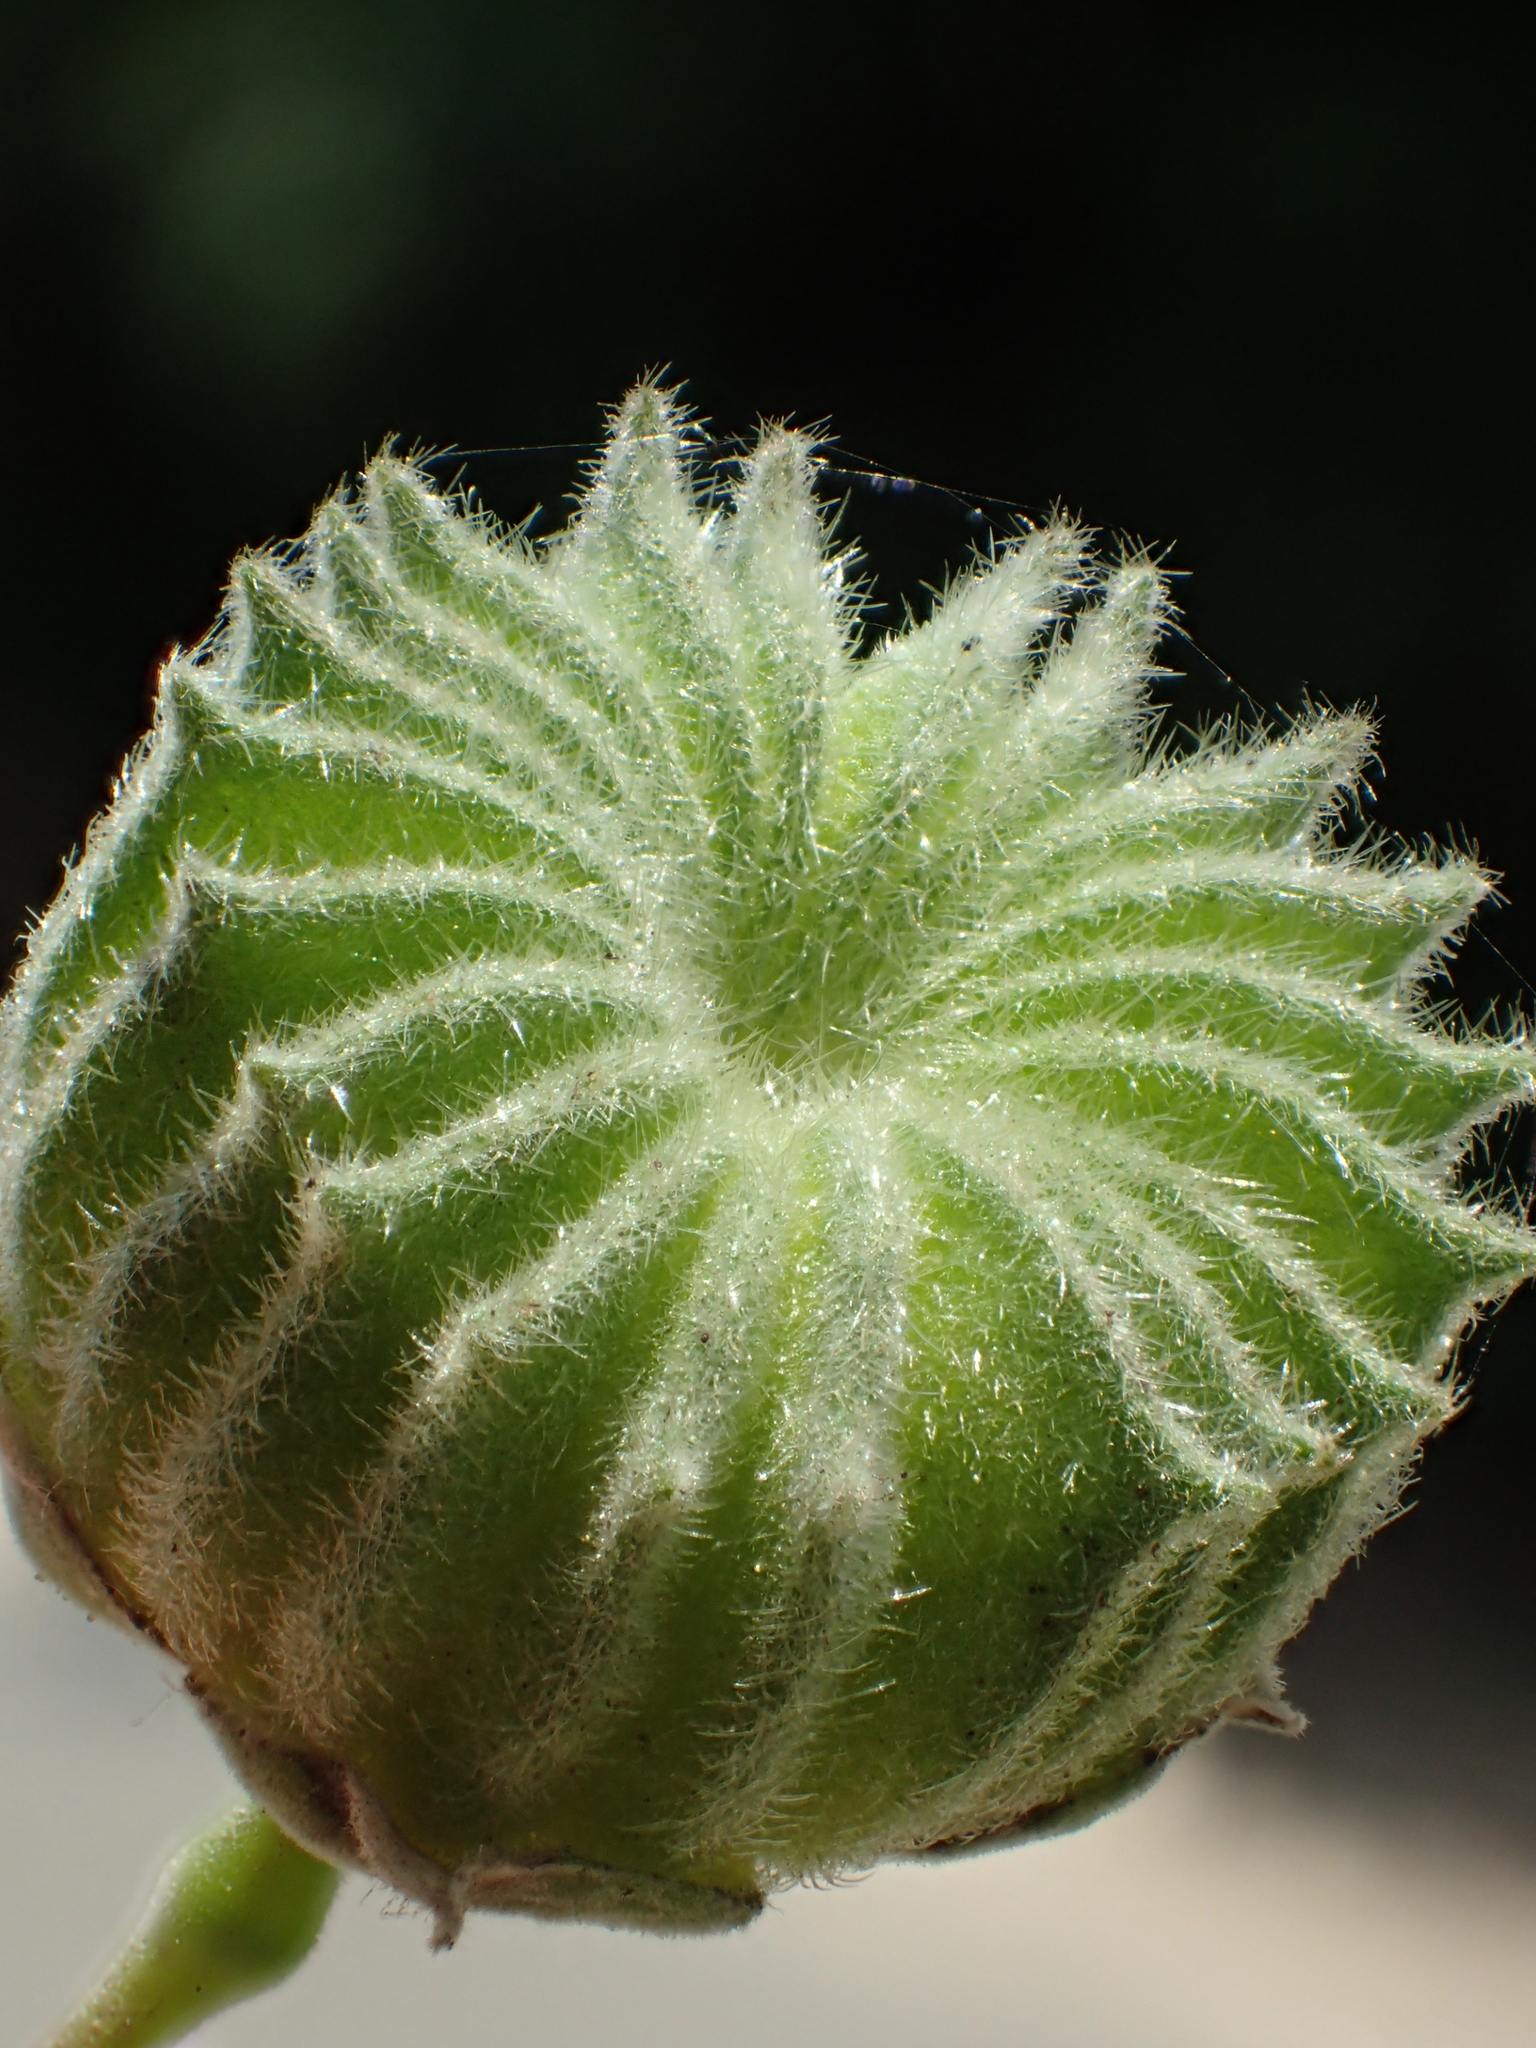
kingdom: Plantae
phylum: Tracheophyta
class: Magnoliopsida
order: Malvales
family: Malvaceae
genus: Abutilon
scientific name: Abutilon indicum
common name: Indian abutilon
